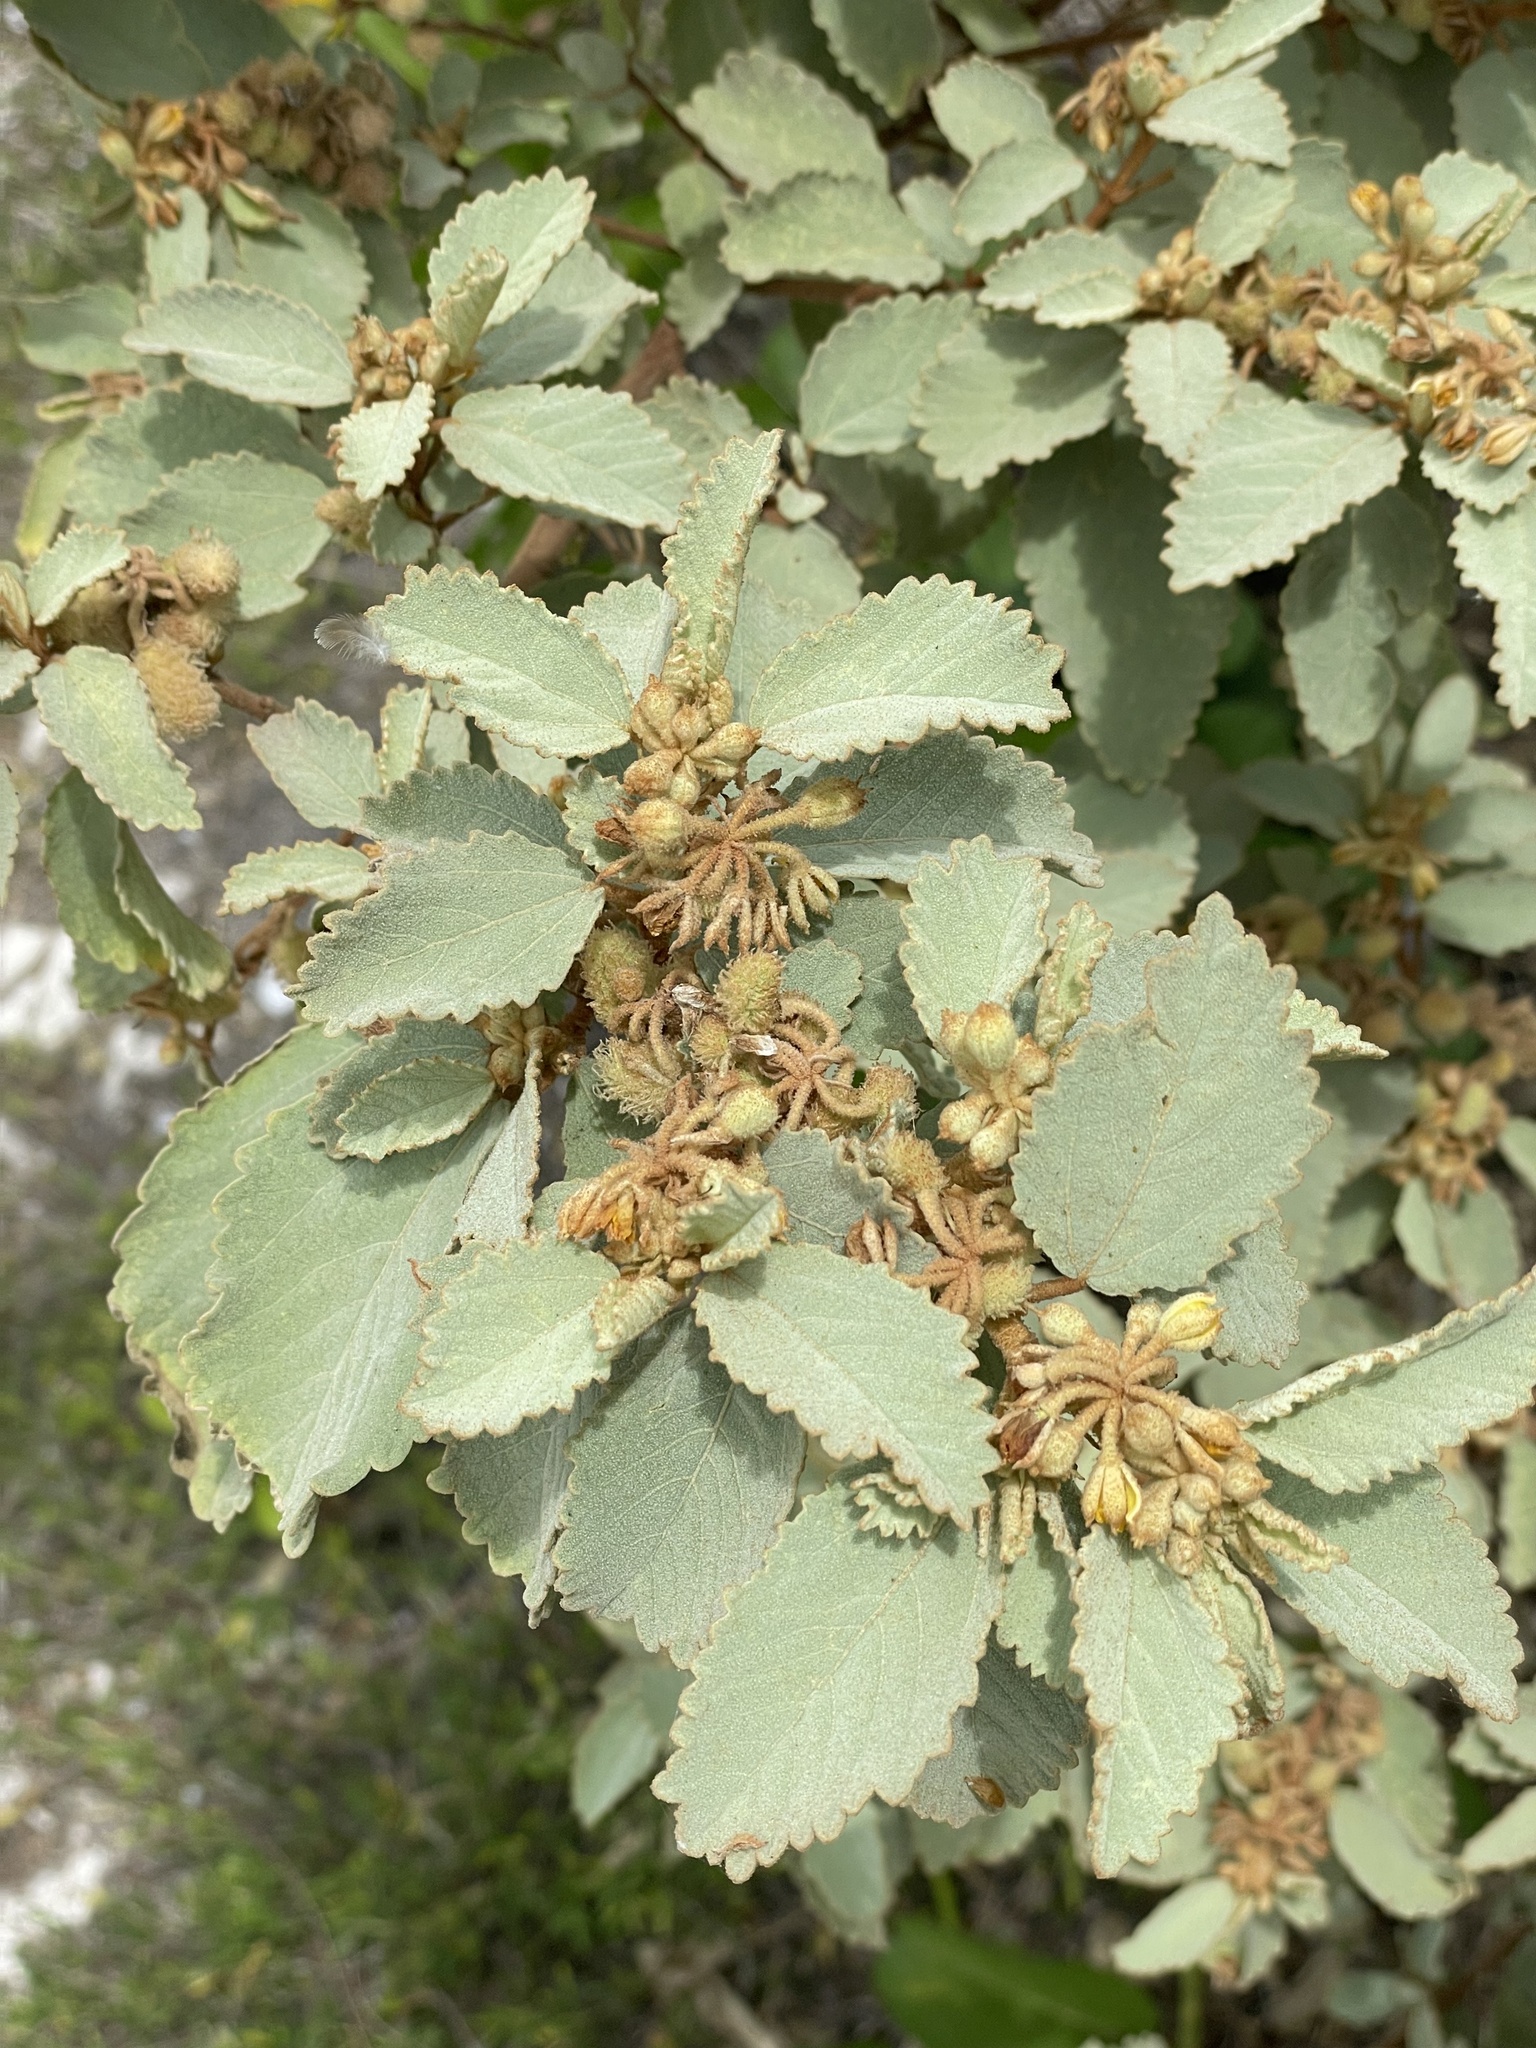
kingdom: Plantae
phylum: Tracheophyta
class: Magnoliopsida
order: Malvales
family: Malvaceae
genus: Corchorus
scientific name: Corchorus hirsutus
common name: Jackswitch
